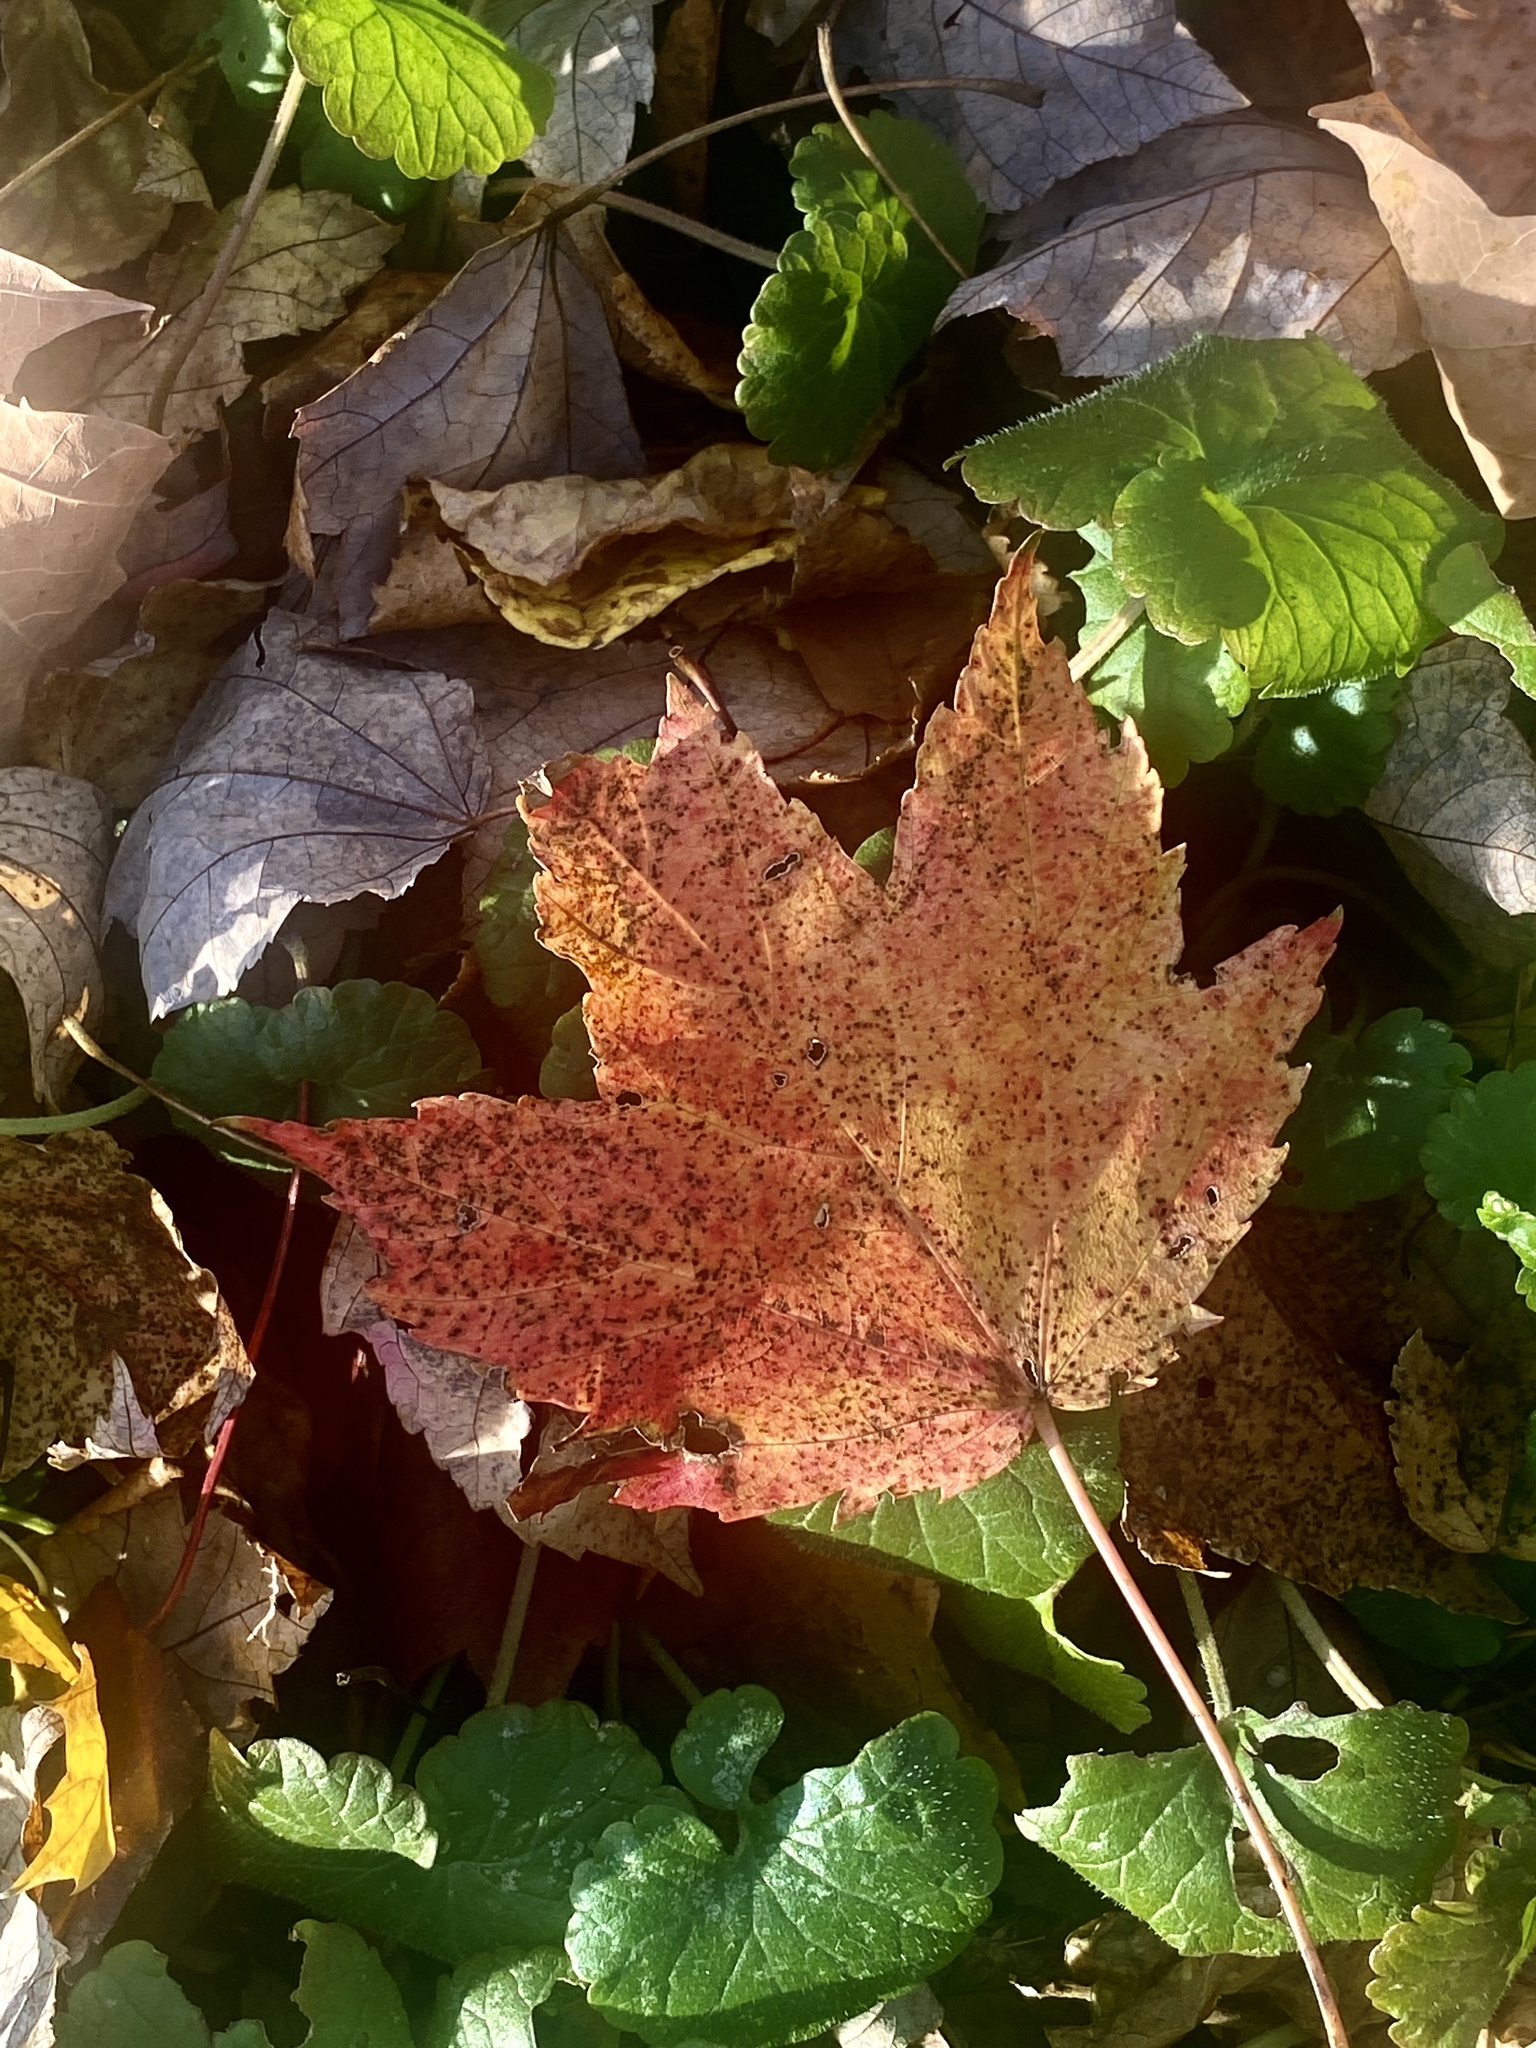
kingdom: Plantae
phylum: Tracheophyta
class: Magnoliopsida
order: Sapindales
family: Sapindaceae
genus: Acer
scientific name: Acer rubrum
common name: Red maple
